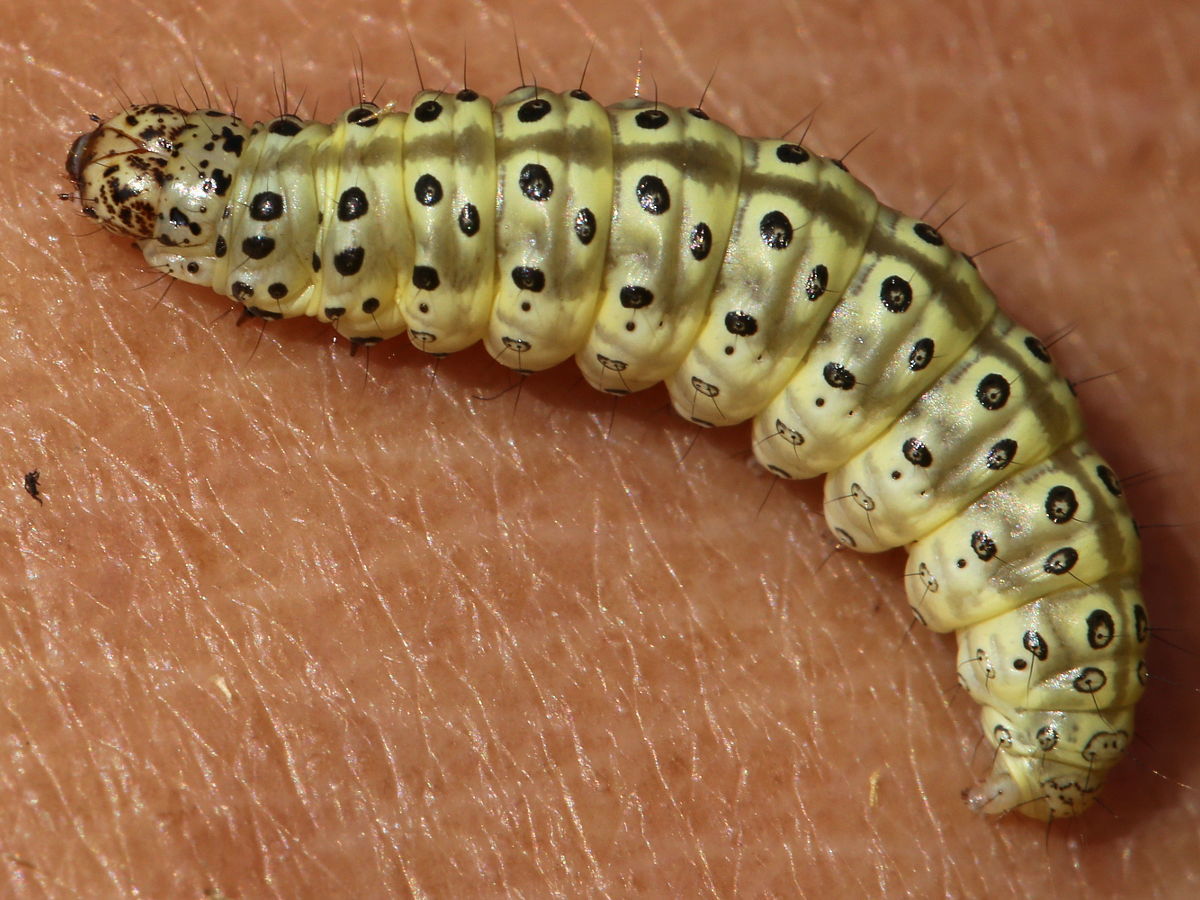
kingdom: Animalia
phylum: Arthropoda
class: Insecta
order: Lepidoptera
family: Crambidae
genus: Sitochroa
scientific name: Sitochroa palealis
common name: Greenish-yellow sitochroa moth
